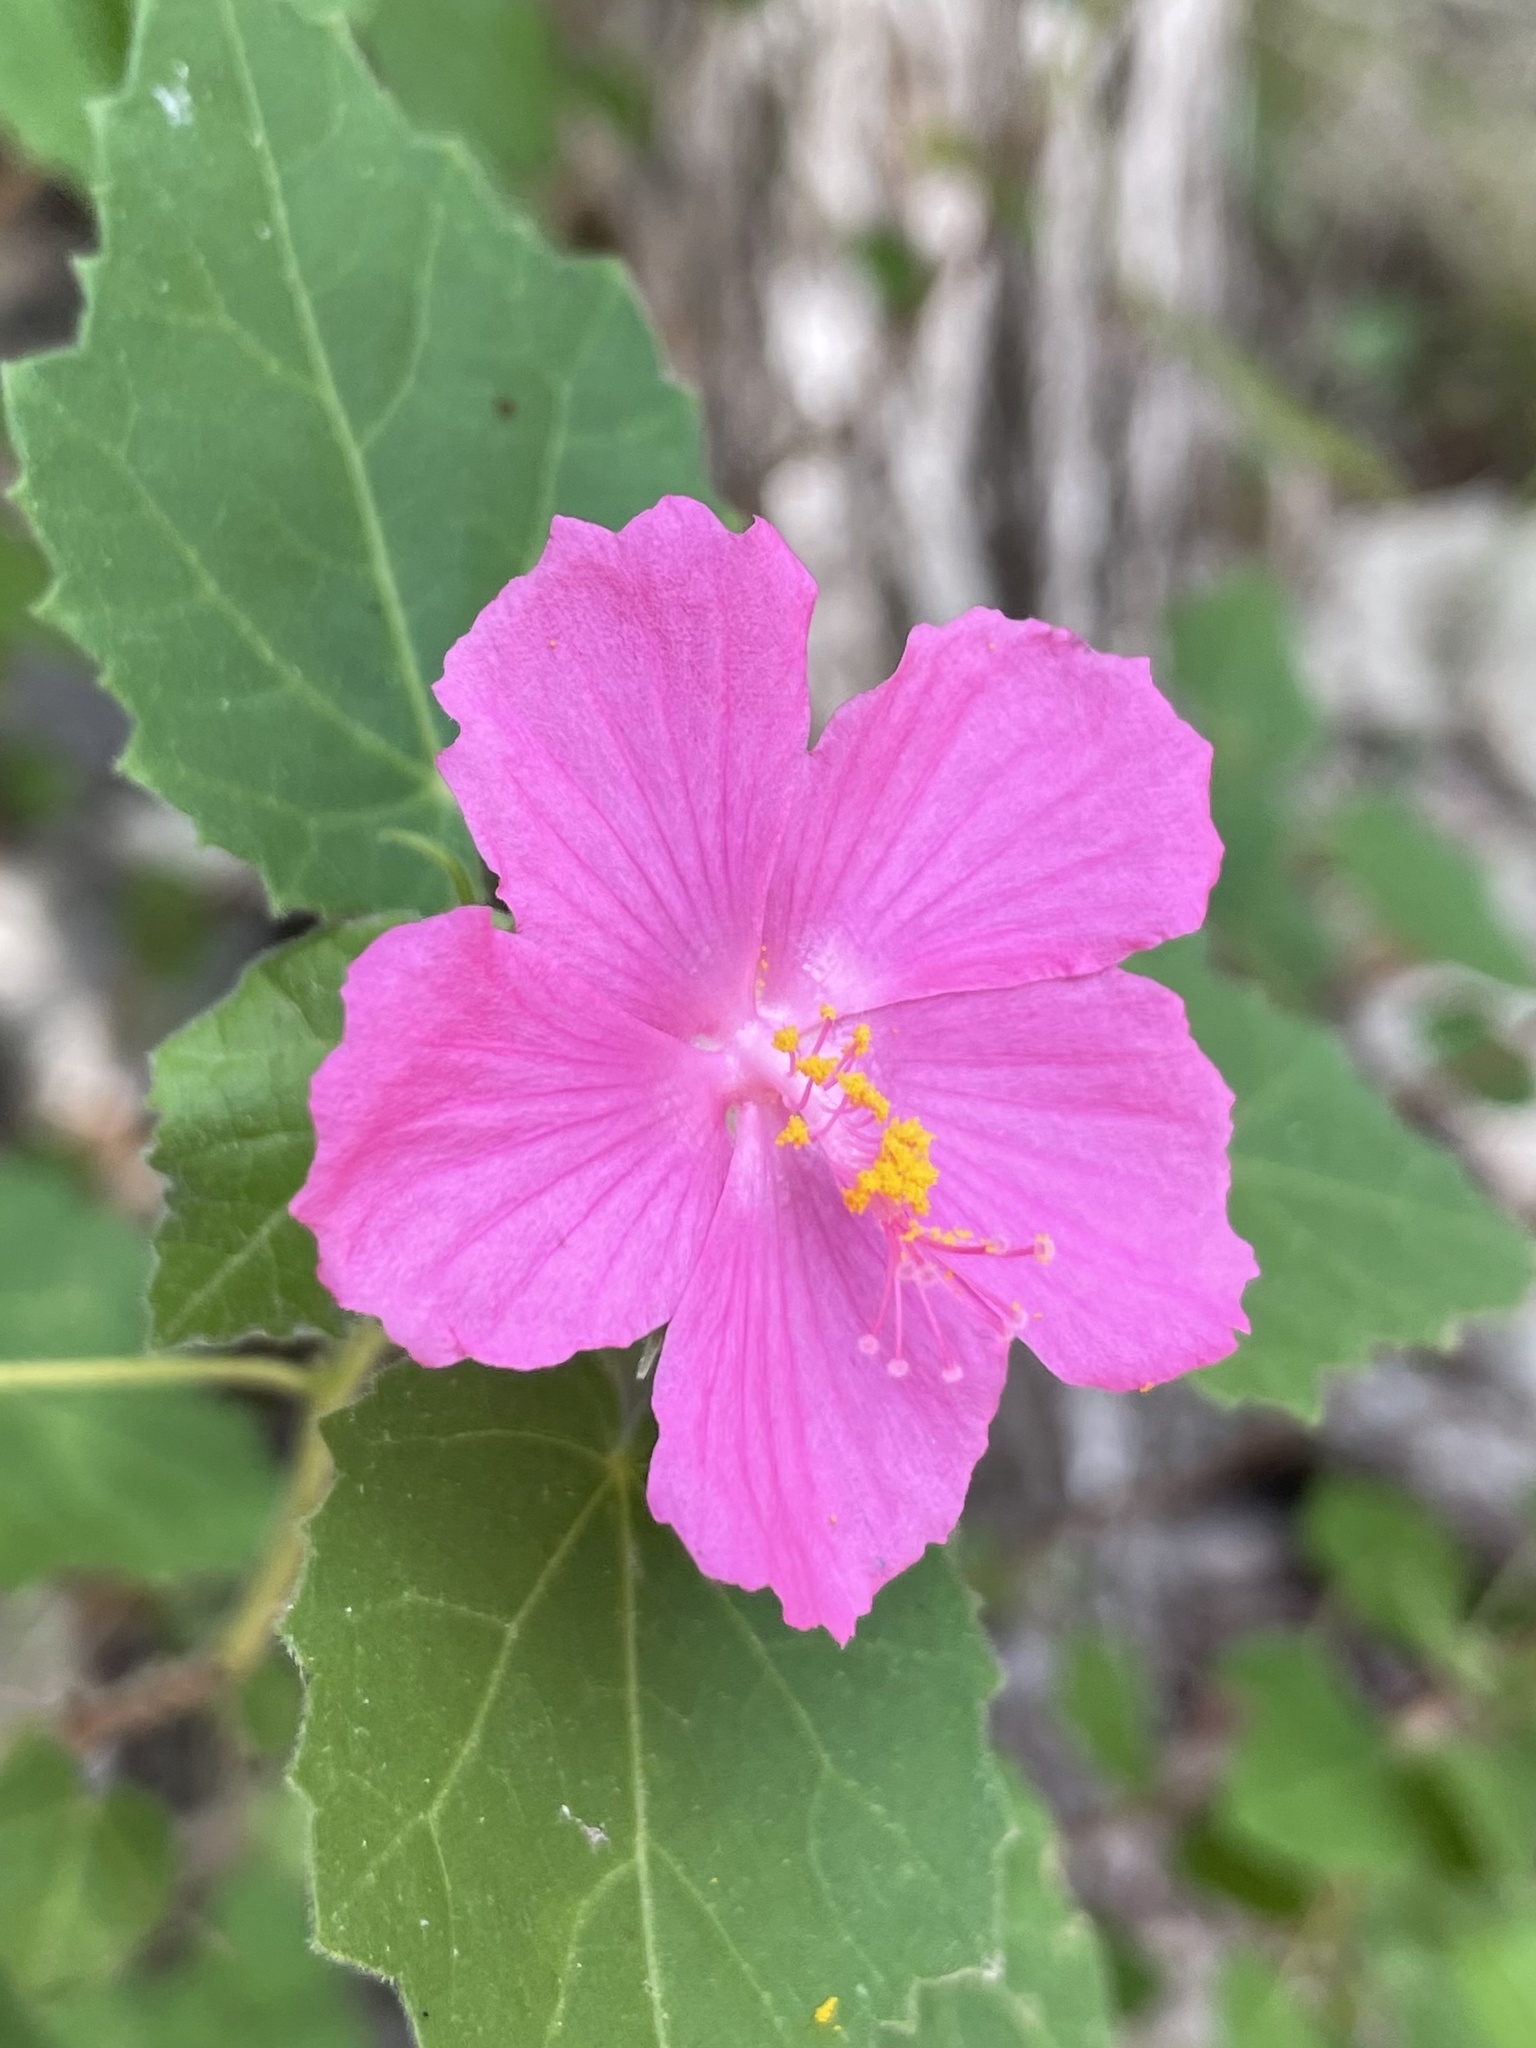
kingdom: Plantae
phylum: Tracheophyta
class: Magnoliopsida
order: Malvales
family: Malvaceae
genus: Pavonia
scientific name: Pavonia lasiopetala
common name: Texas swamp-mallow
